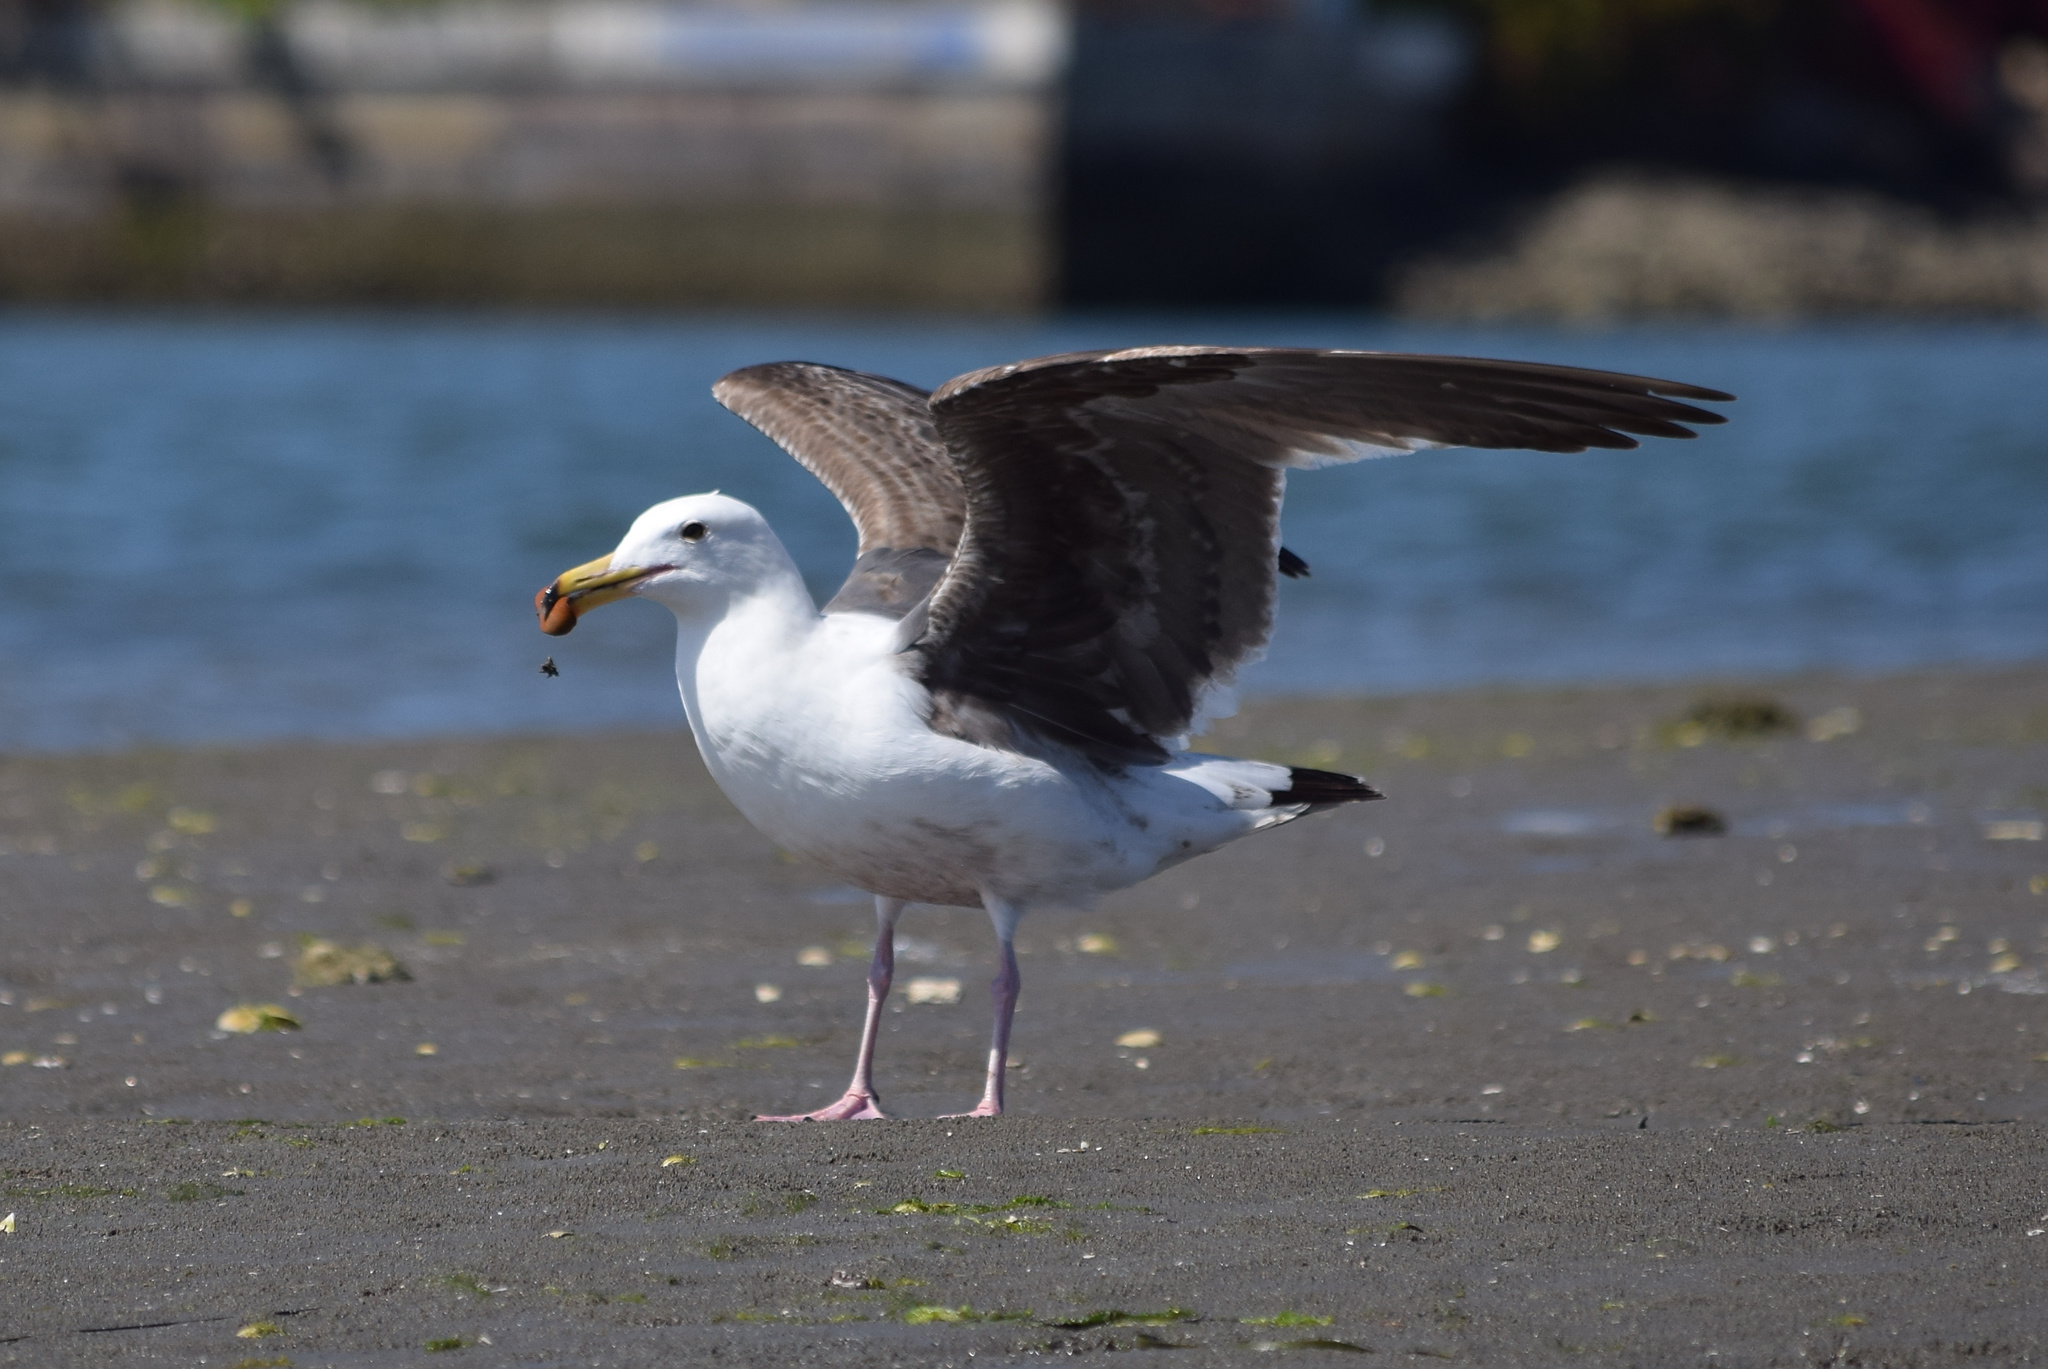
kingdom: Animalia
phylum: Chordata
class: Aves
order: Charadriiformes
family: Laridae
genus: Larus
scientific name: Larus occidentalis
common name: Western gull
